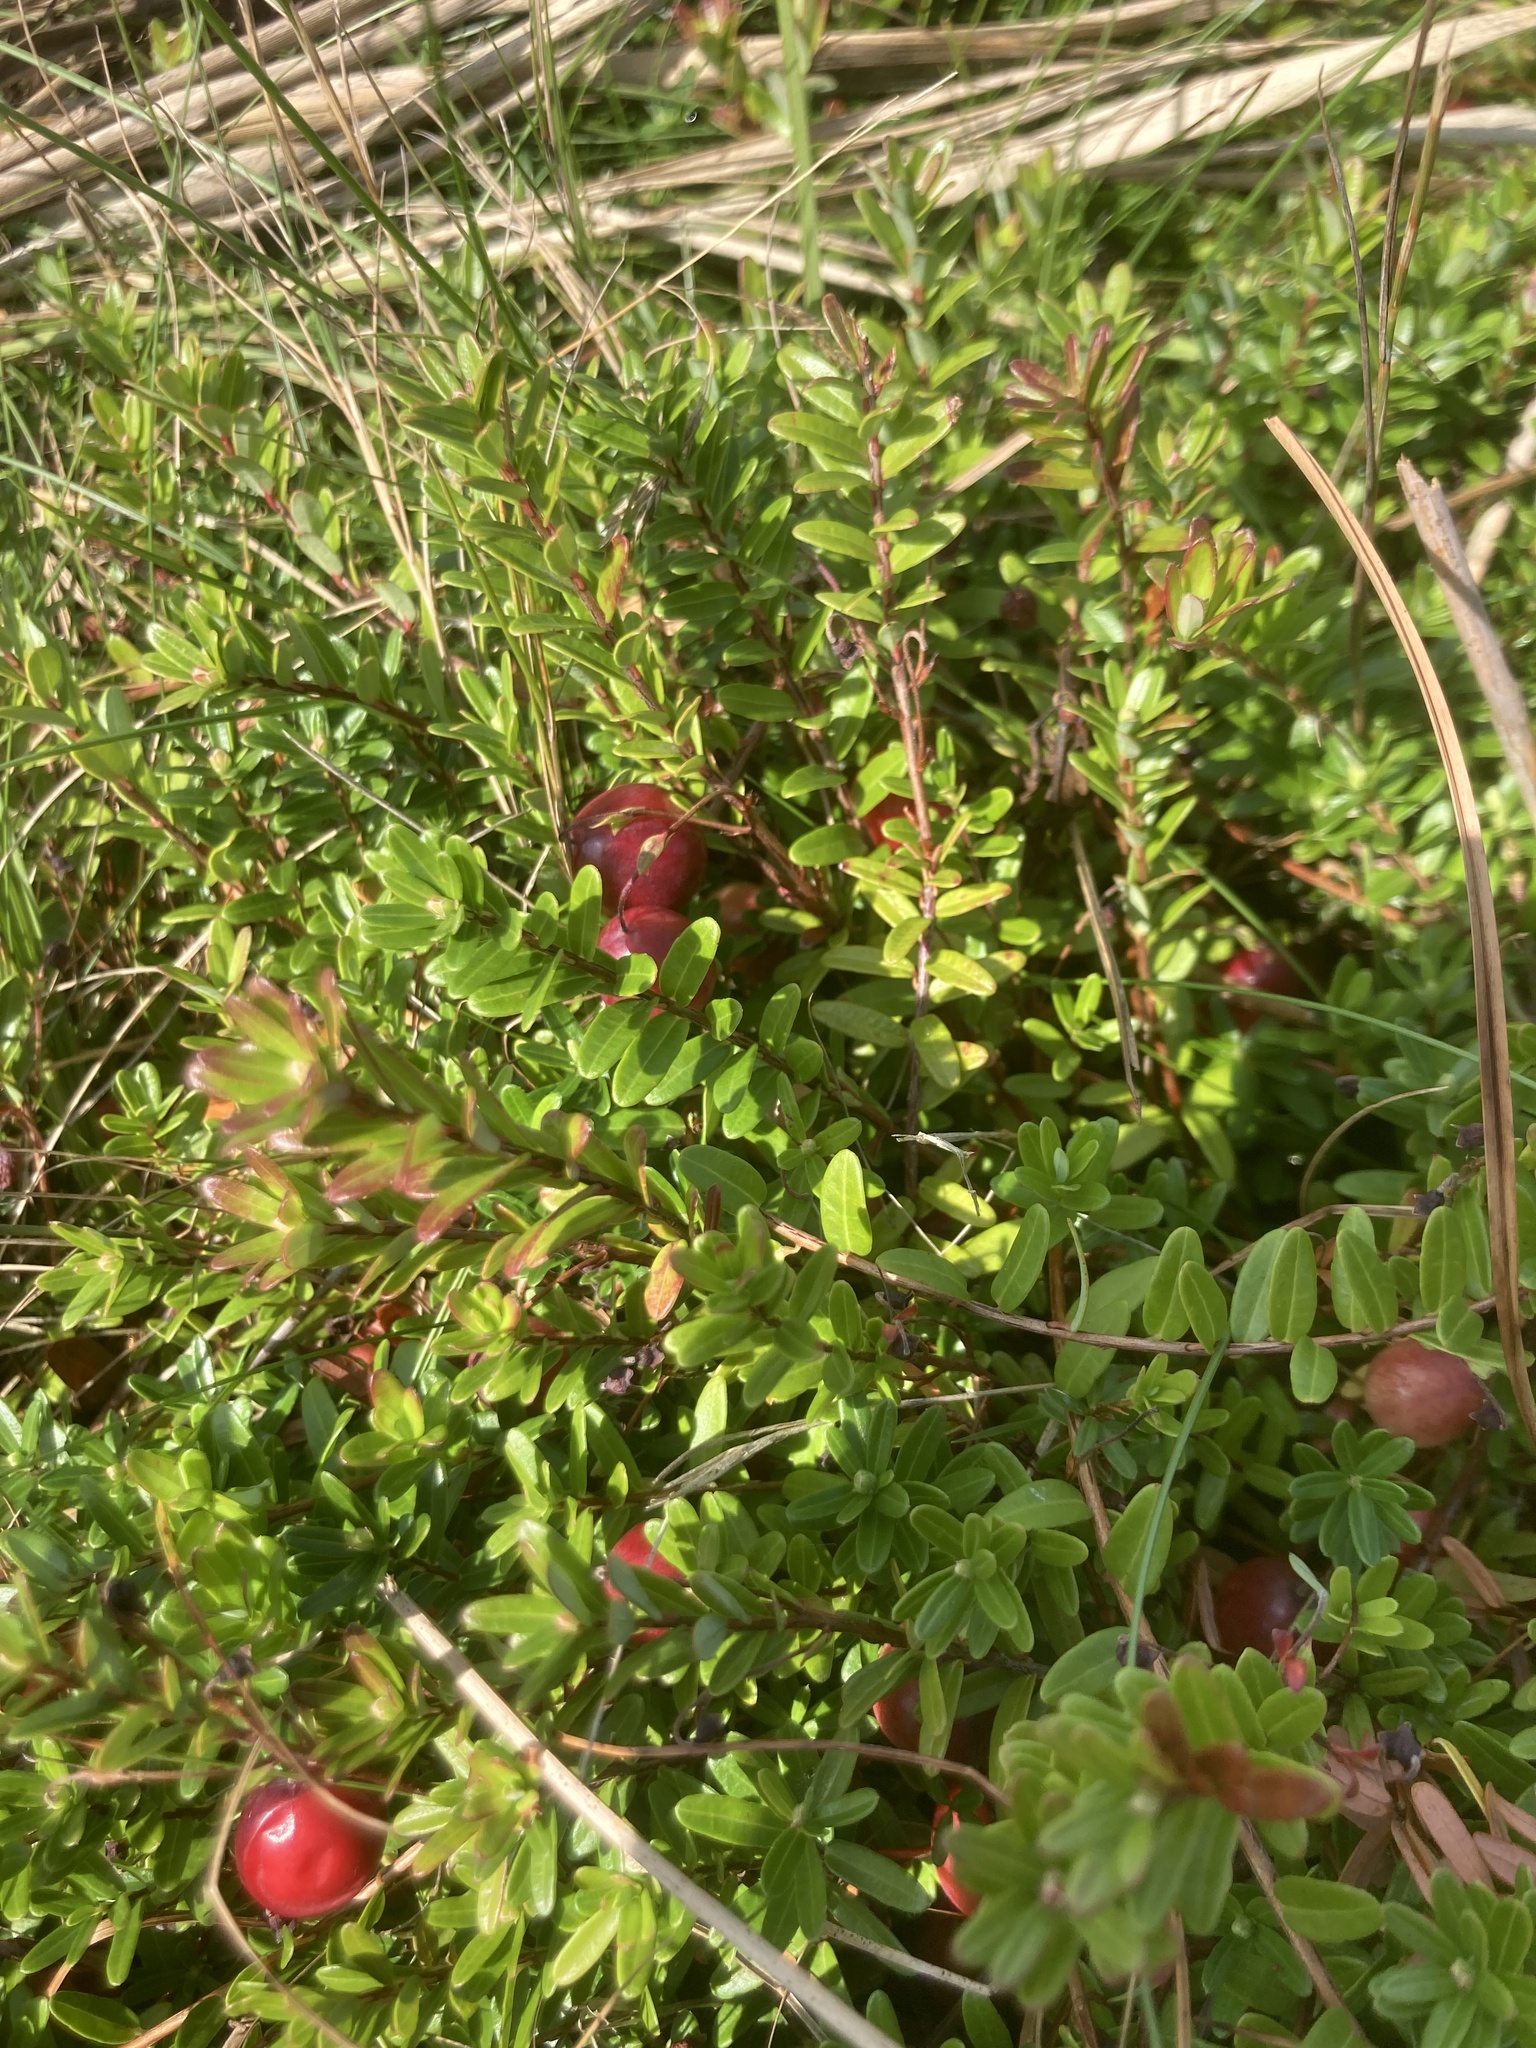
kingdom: Plantae
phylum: Tracheophyta
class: Magnoliopsida
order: Ericales
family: Ericaceae
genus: Vaccinium
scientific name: Vaccinium macrocarpon
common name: American cranberry
